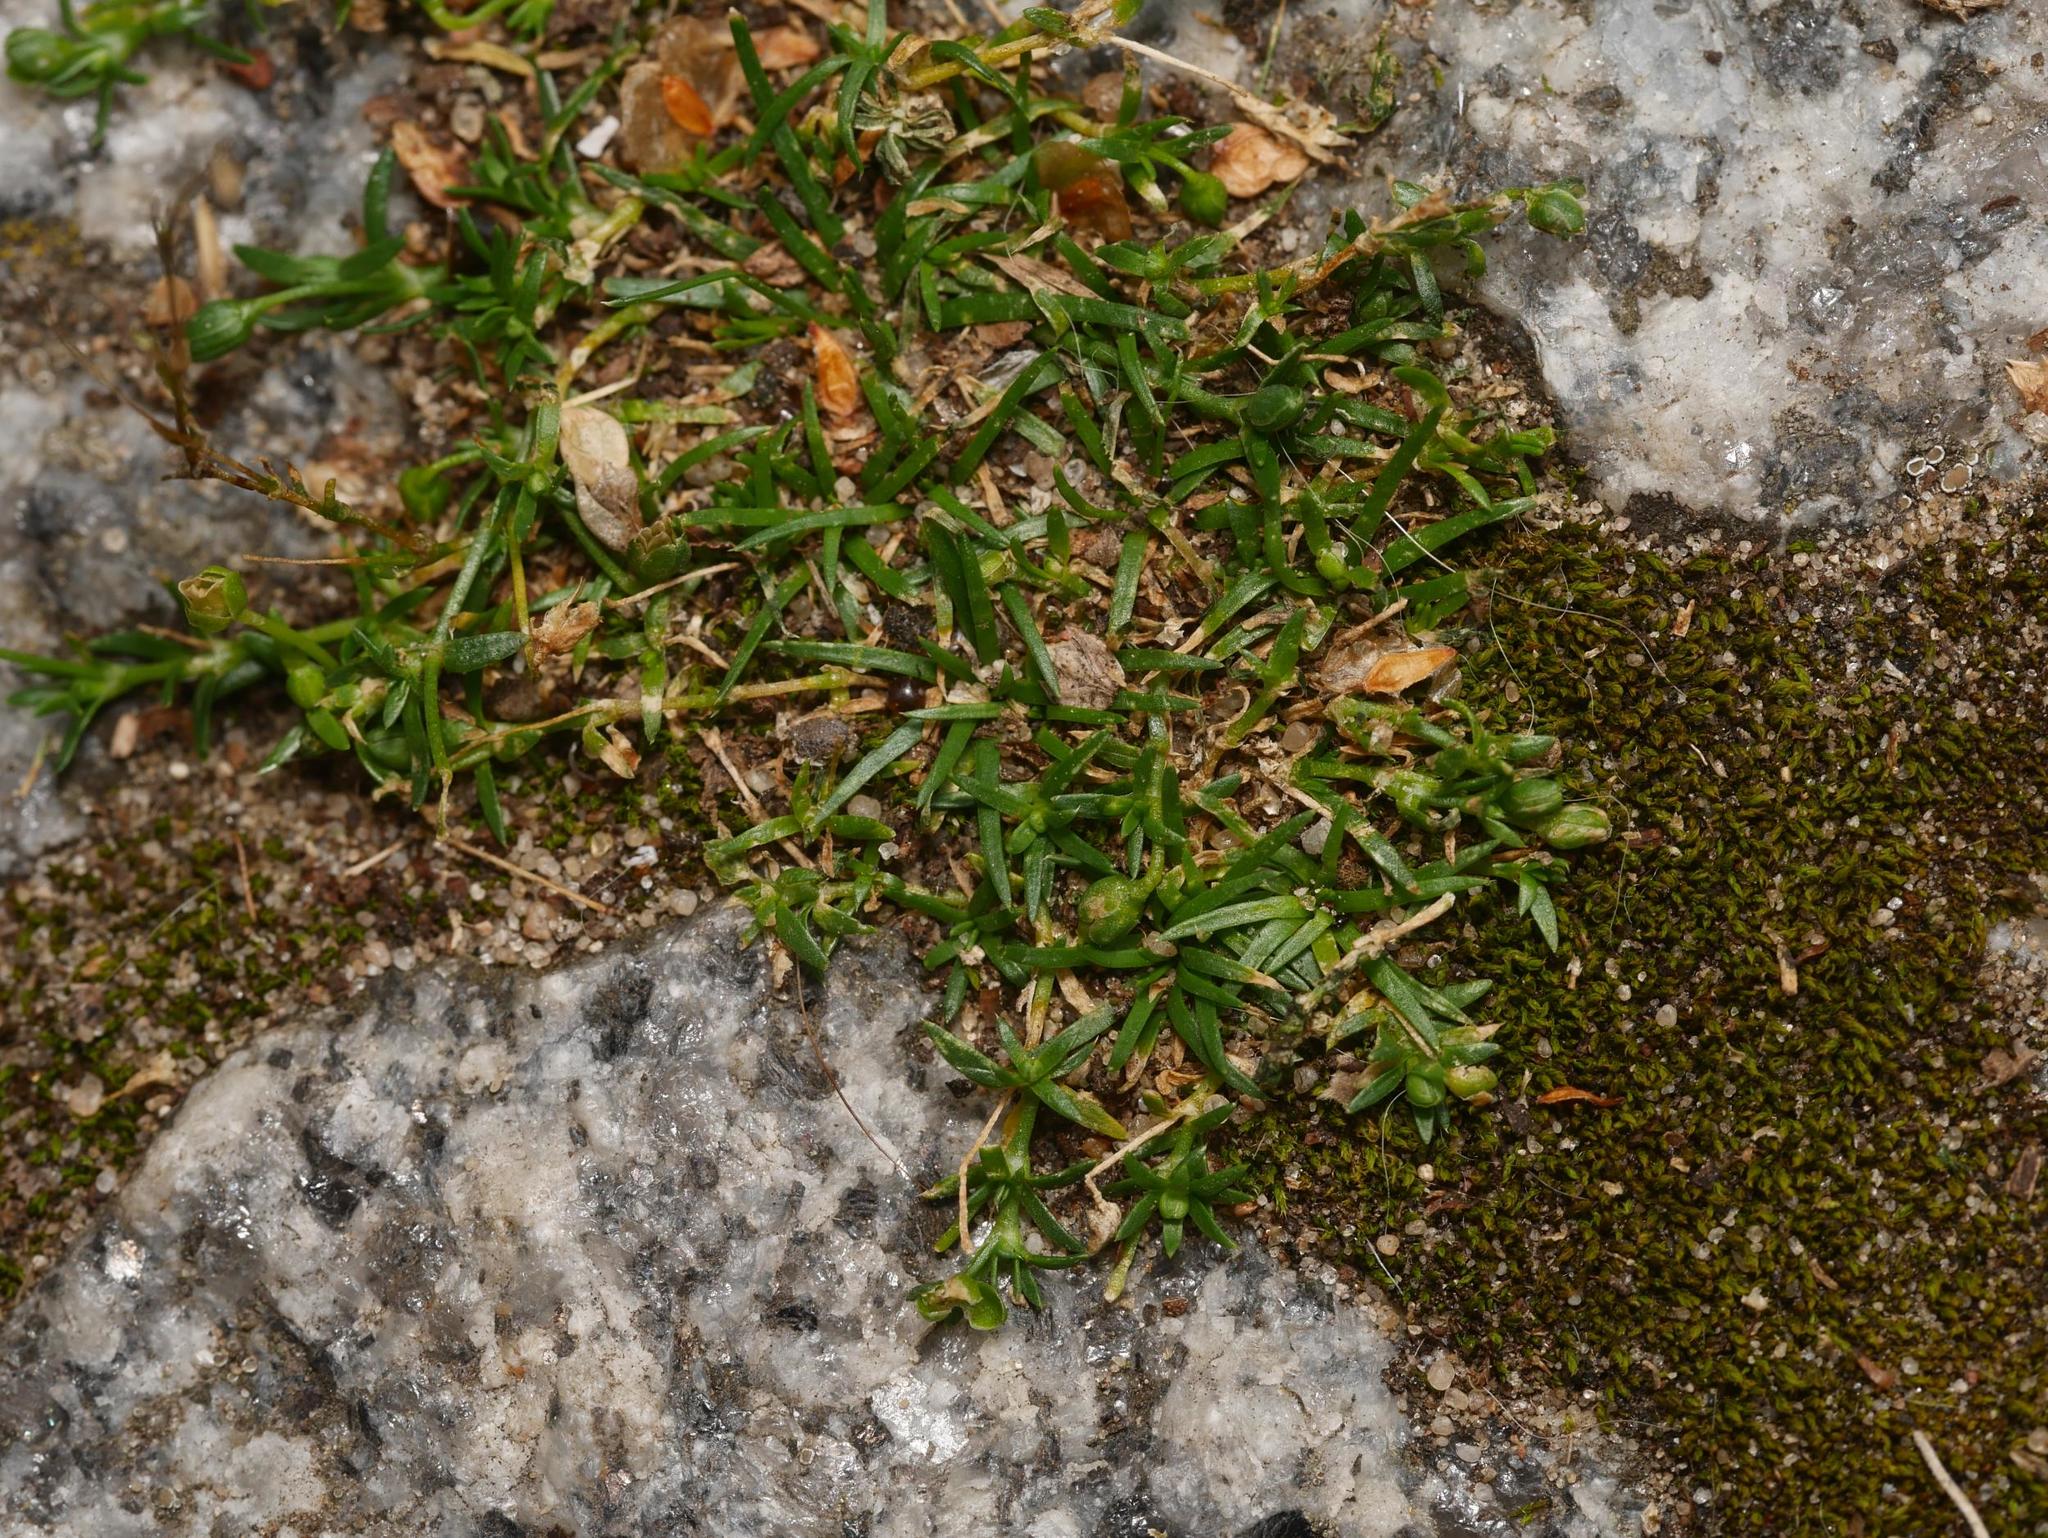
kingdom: Plantae
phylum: Tracheophyta
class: Magnoliopsida
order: Caryophyllales
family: Caryophyllaceae
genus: Sagina
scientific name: Sagina procumbens
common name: Procumbent pearlwort
